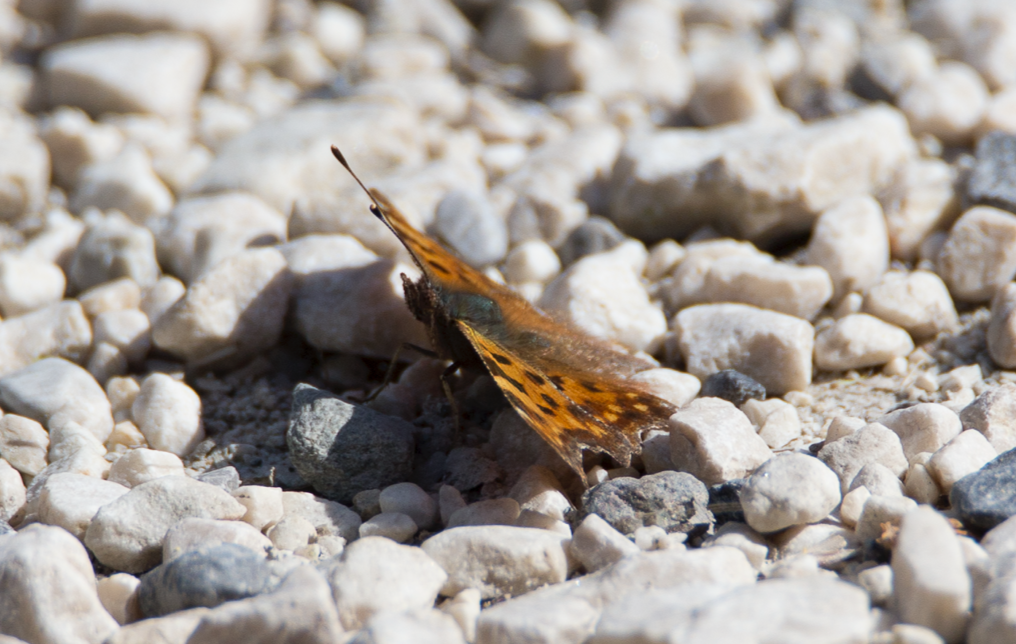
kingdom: Animalia
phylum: Arthropoda
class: Insecta
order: Lepidoptera
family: Nymphalidae
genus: Polygonia
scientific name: Polygonia c-album
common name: Comma
